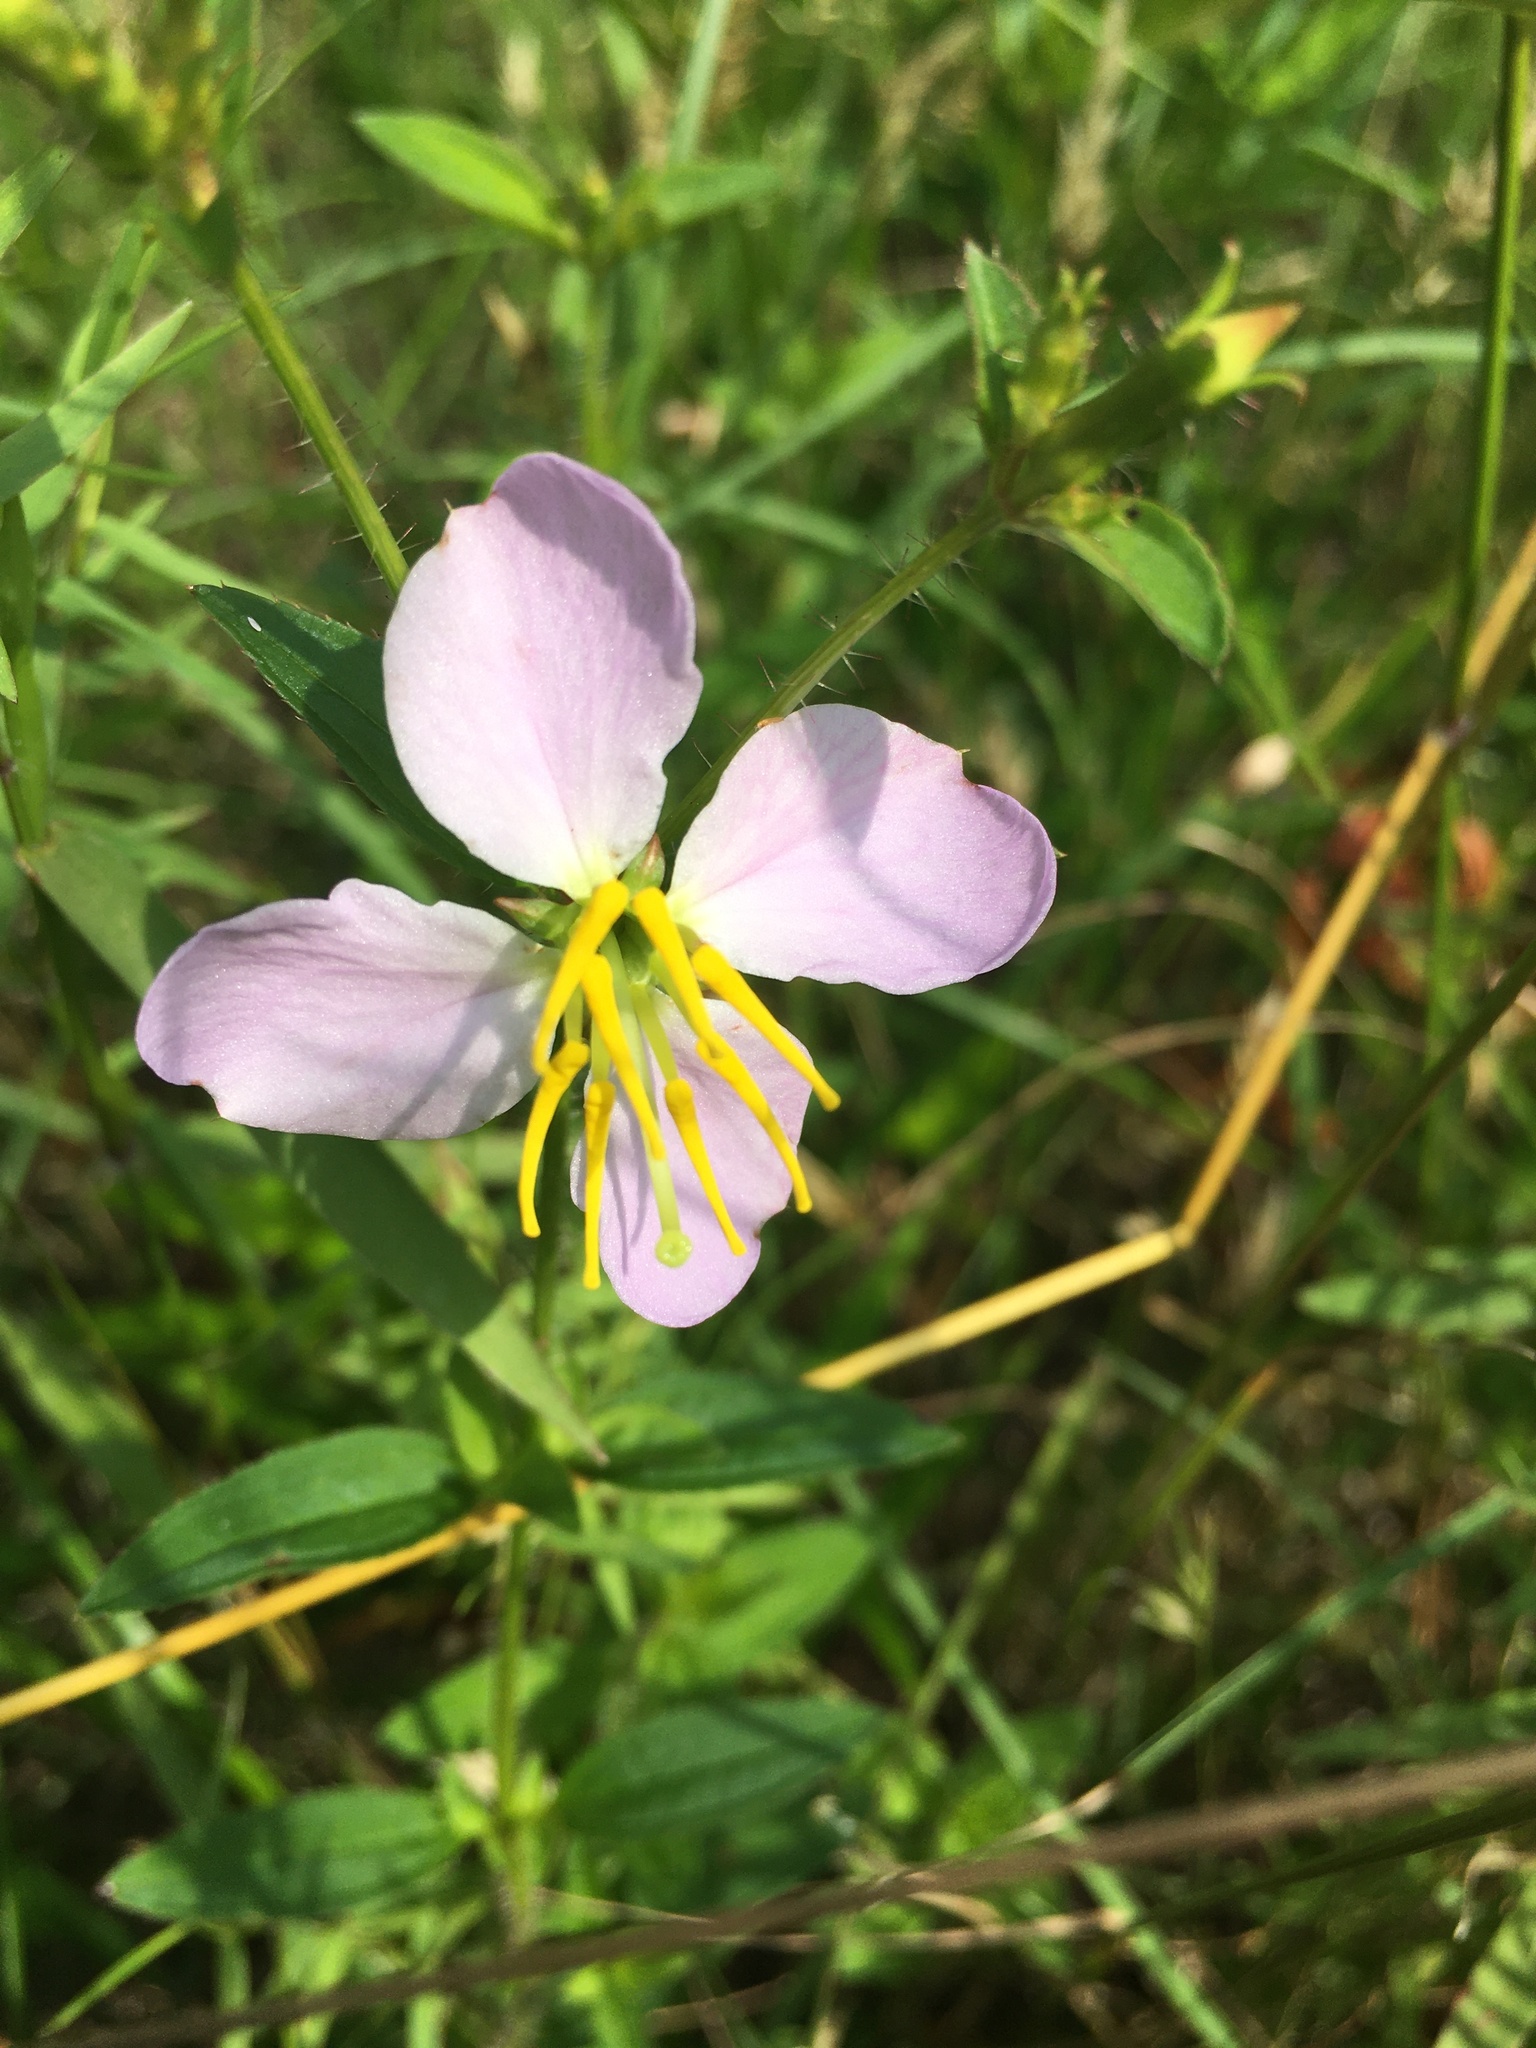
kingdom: Plantae
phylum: Tracheophyta
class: Magnoliopsida
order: Myrtales
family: Melastomataceae
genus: Rhexia
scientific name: Rhexia mariana
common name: Dull meadow-pitcher
